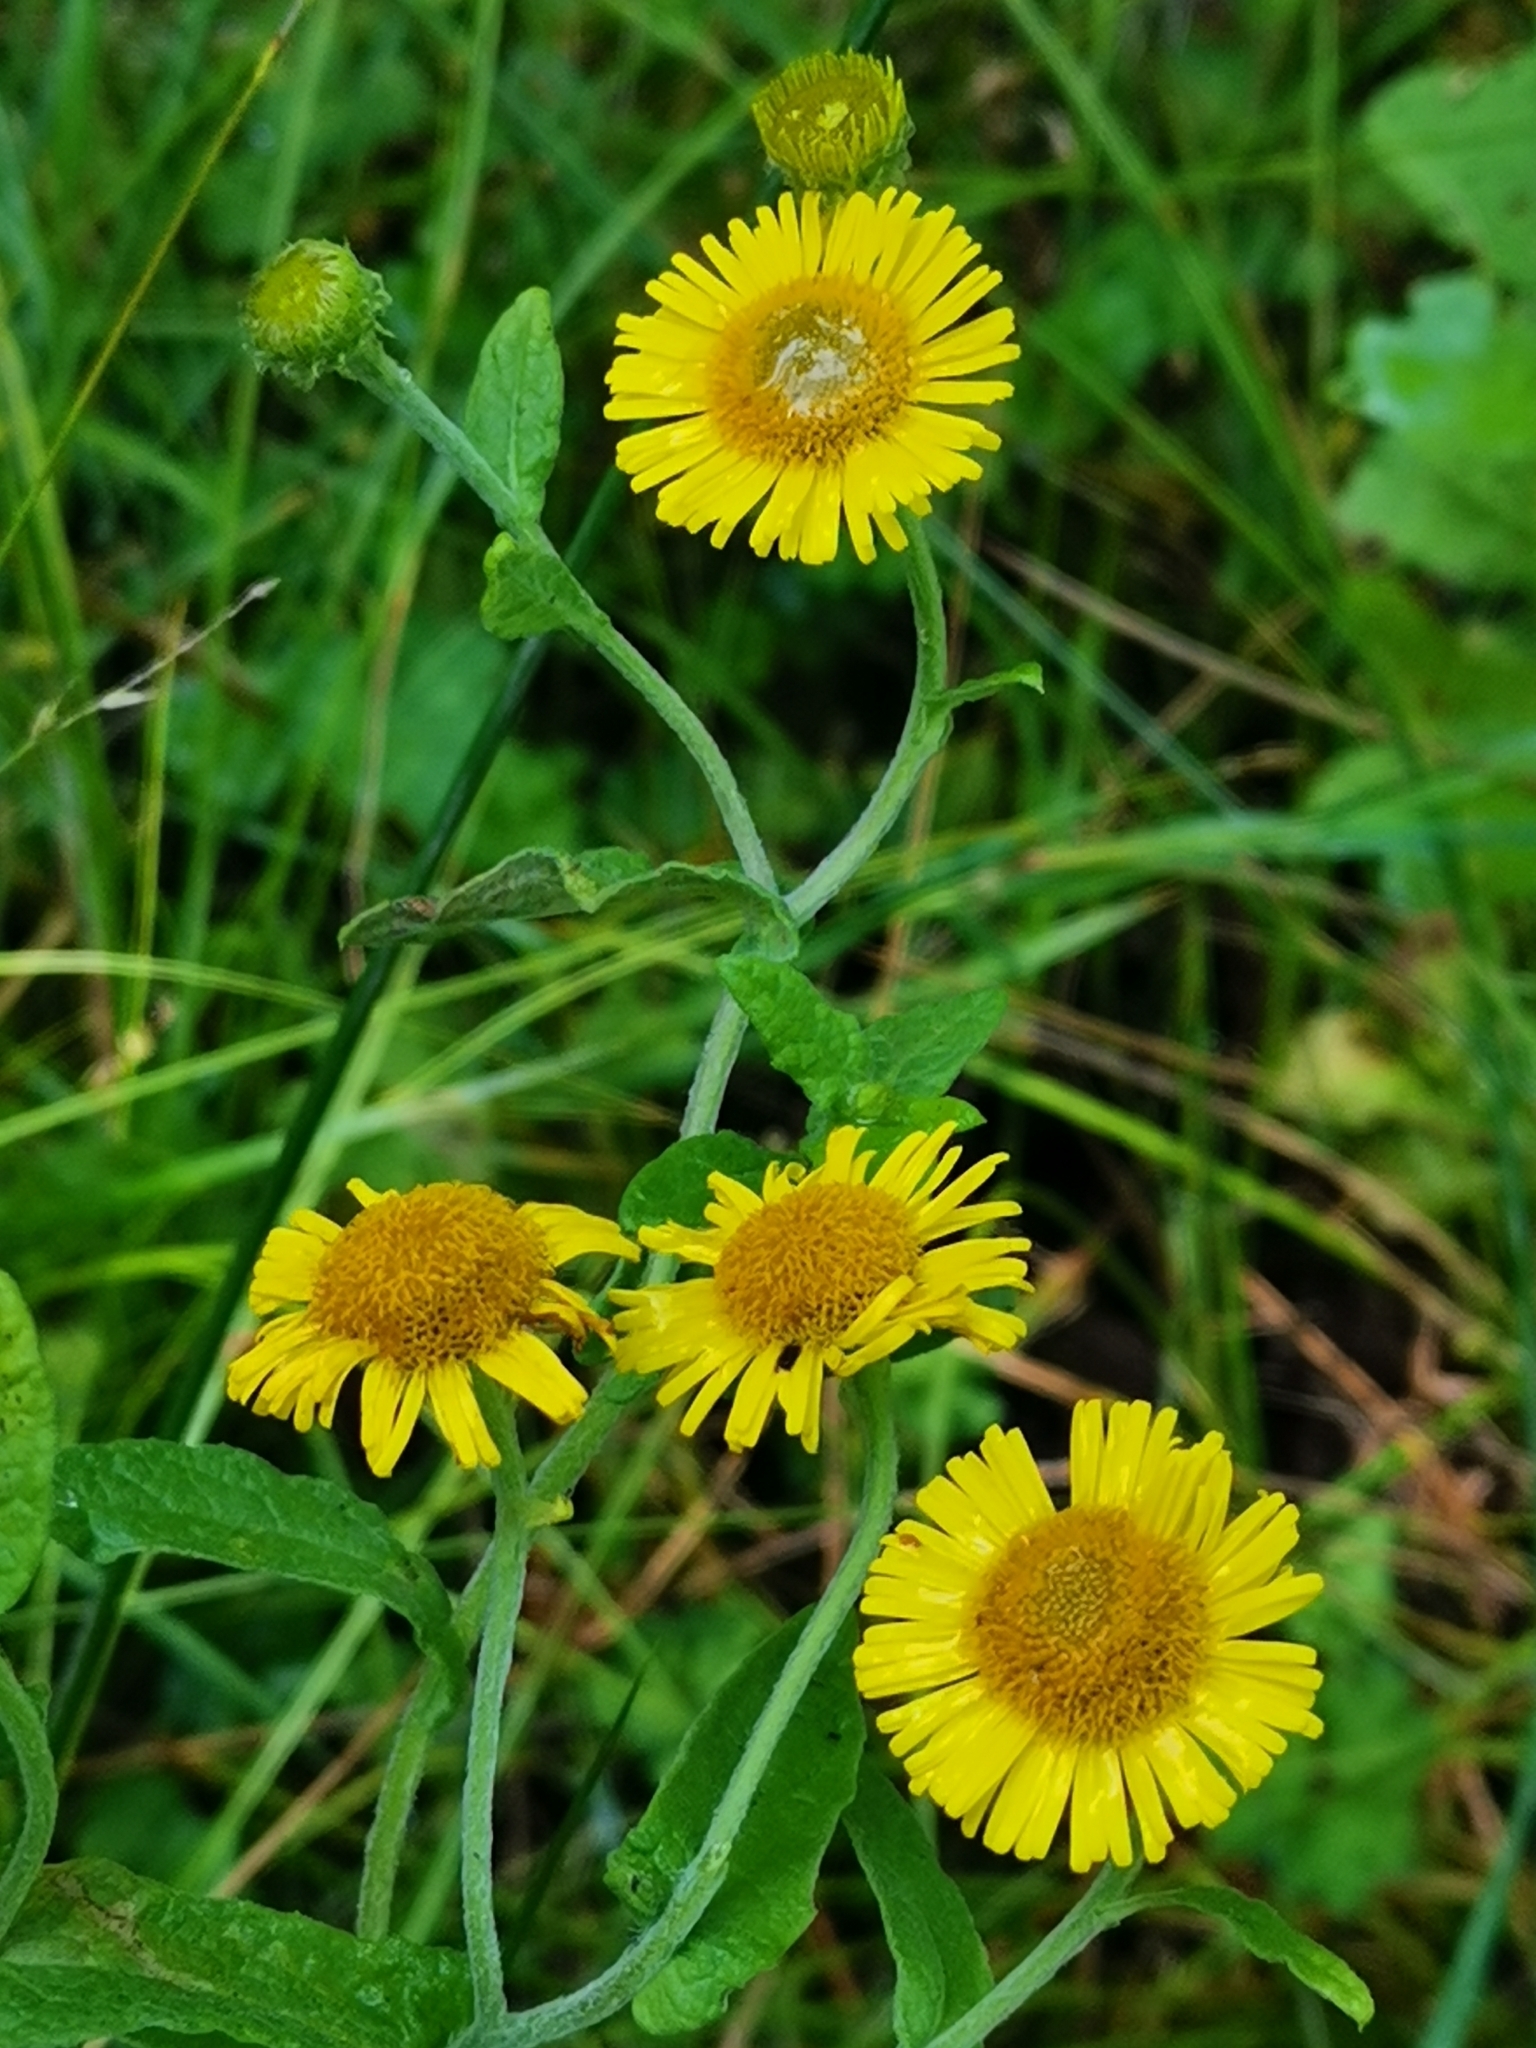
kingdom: Plantae
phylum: Tracheophyta
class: Magnoliopsida
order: Asterales
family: Asteraceae
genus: Pulicaria
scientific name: Pulicaria dysenterica
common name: Common fleabane
